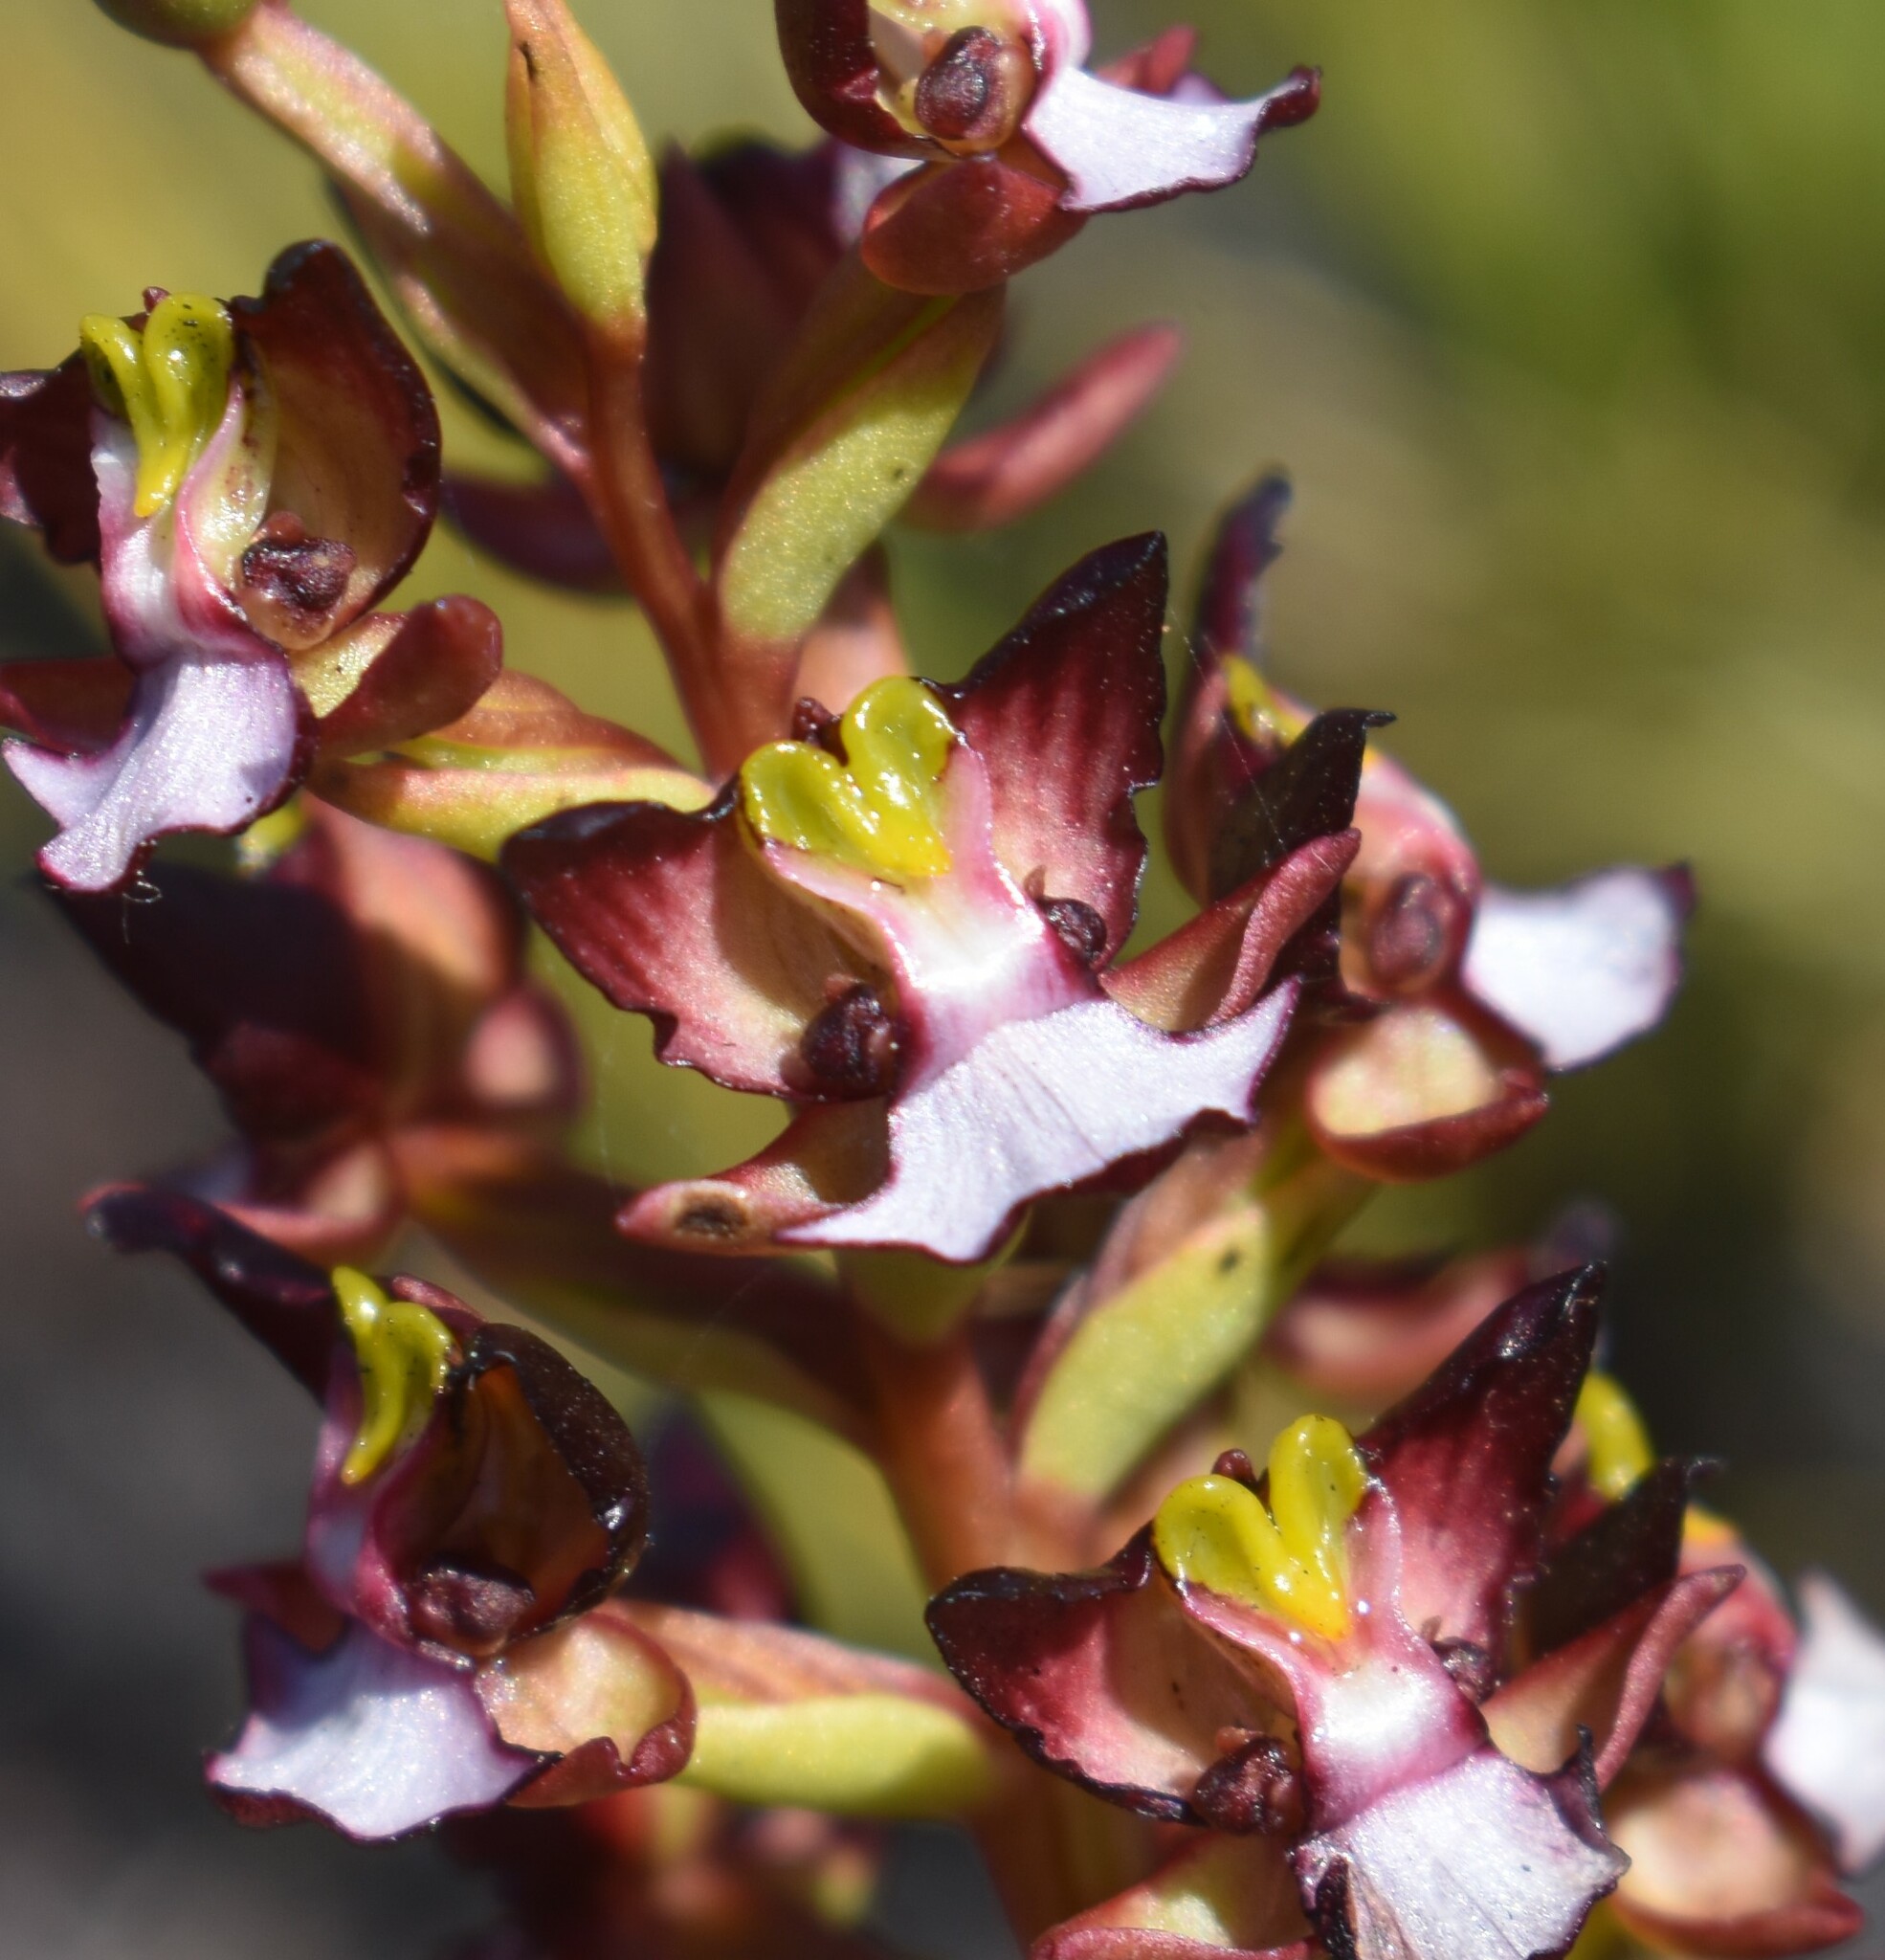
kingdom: Plantae
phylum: Tracheophyta
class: Liliopsida
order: Asparagales
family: Orchidaceae
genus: Evotella
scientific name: Evotella rubiginosa
